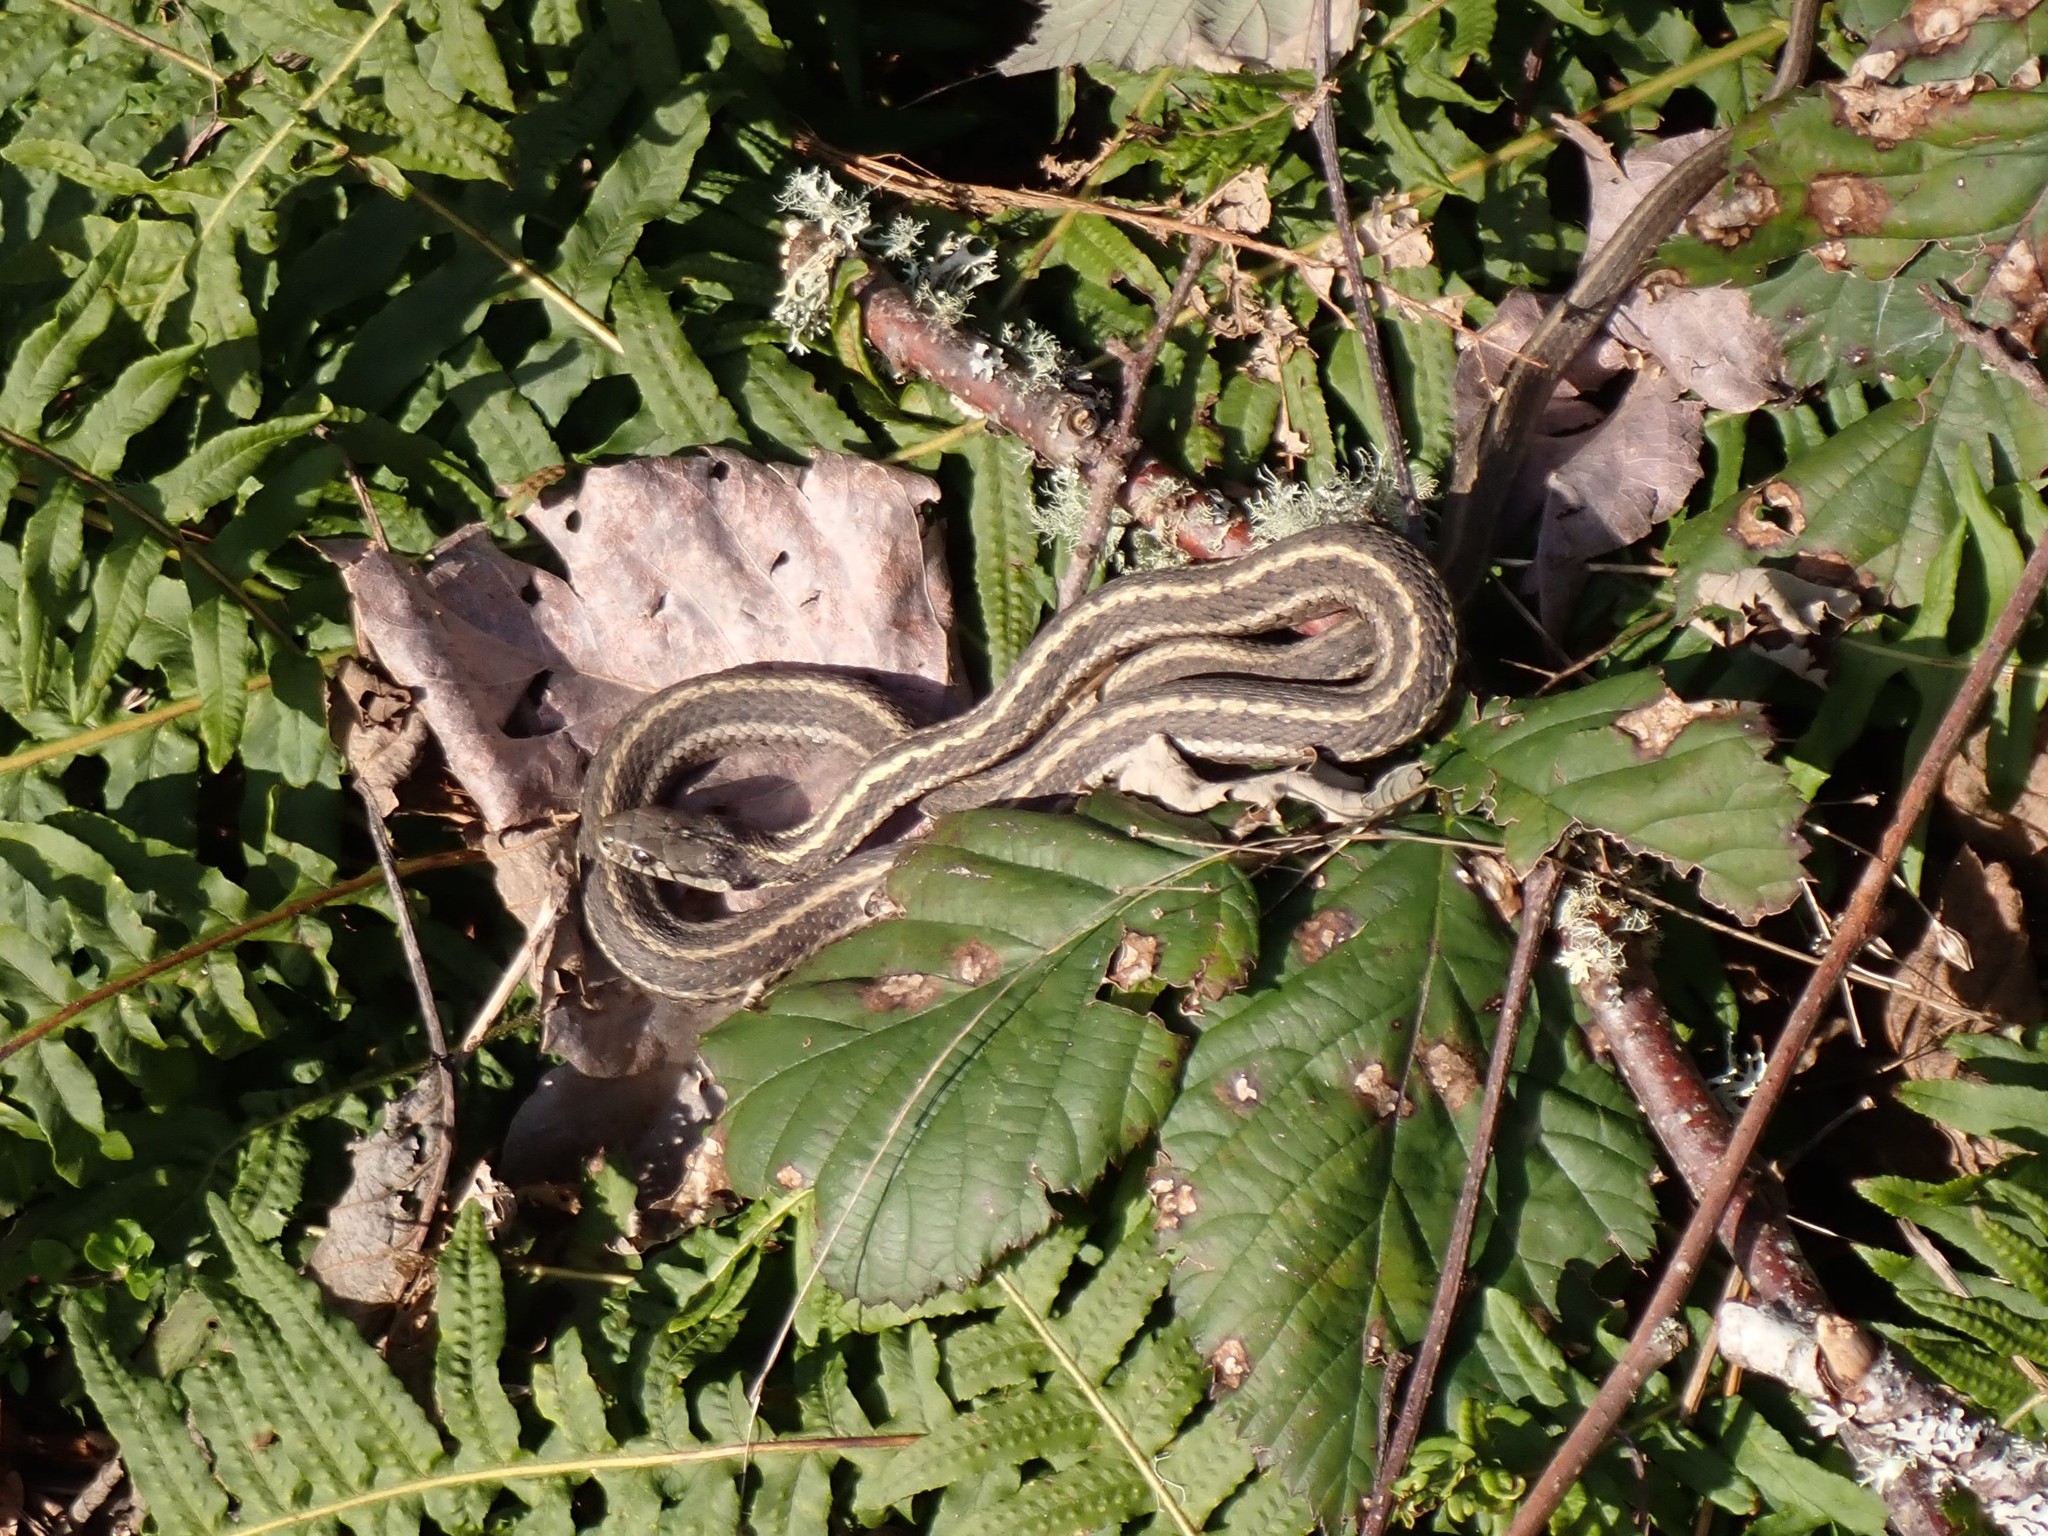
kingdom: Animalia
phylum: Chordata
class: Squamata
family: Colubridae
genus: Thamnophis
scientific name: Thamnophis elegans
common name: Western terrestrial garter snake
